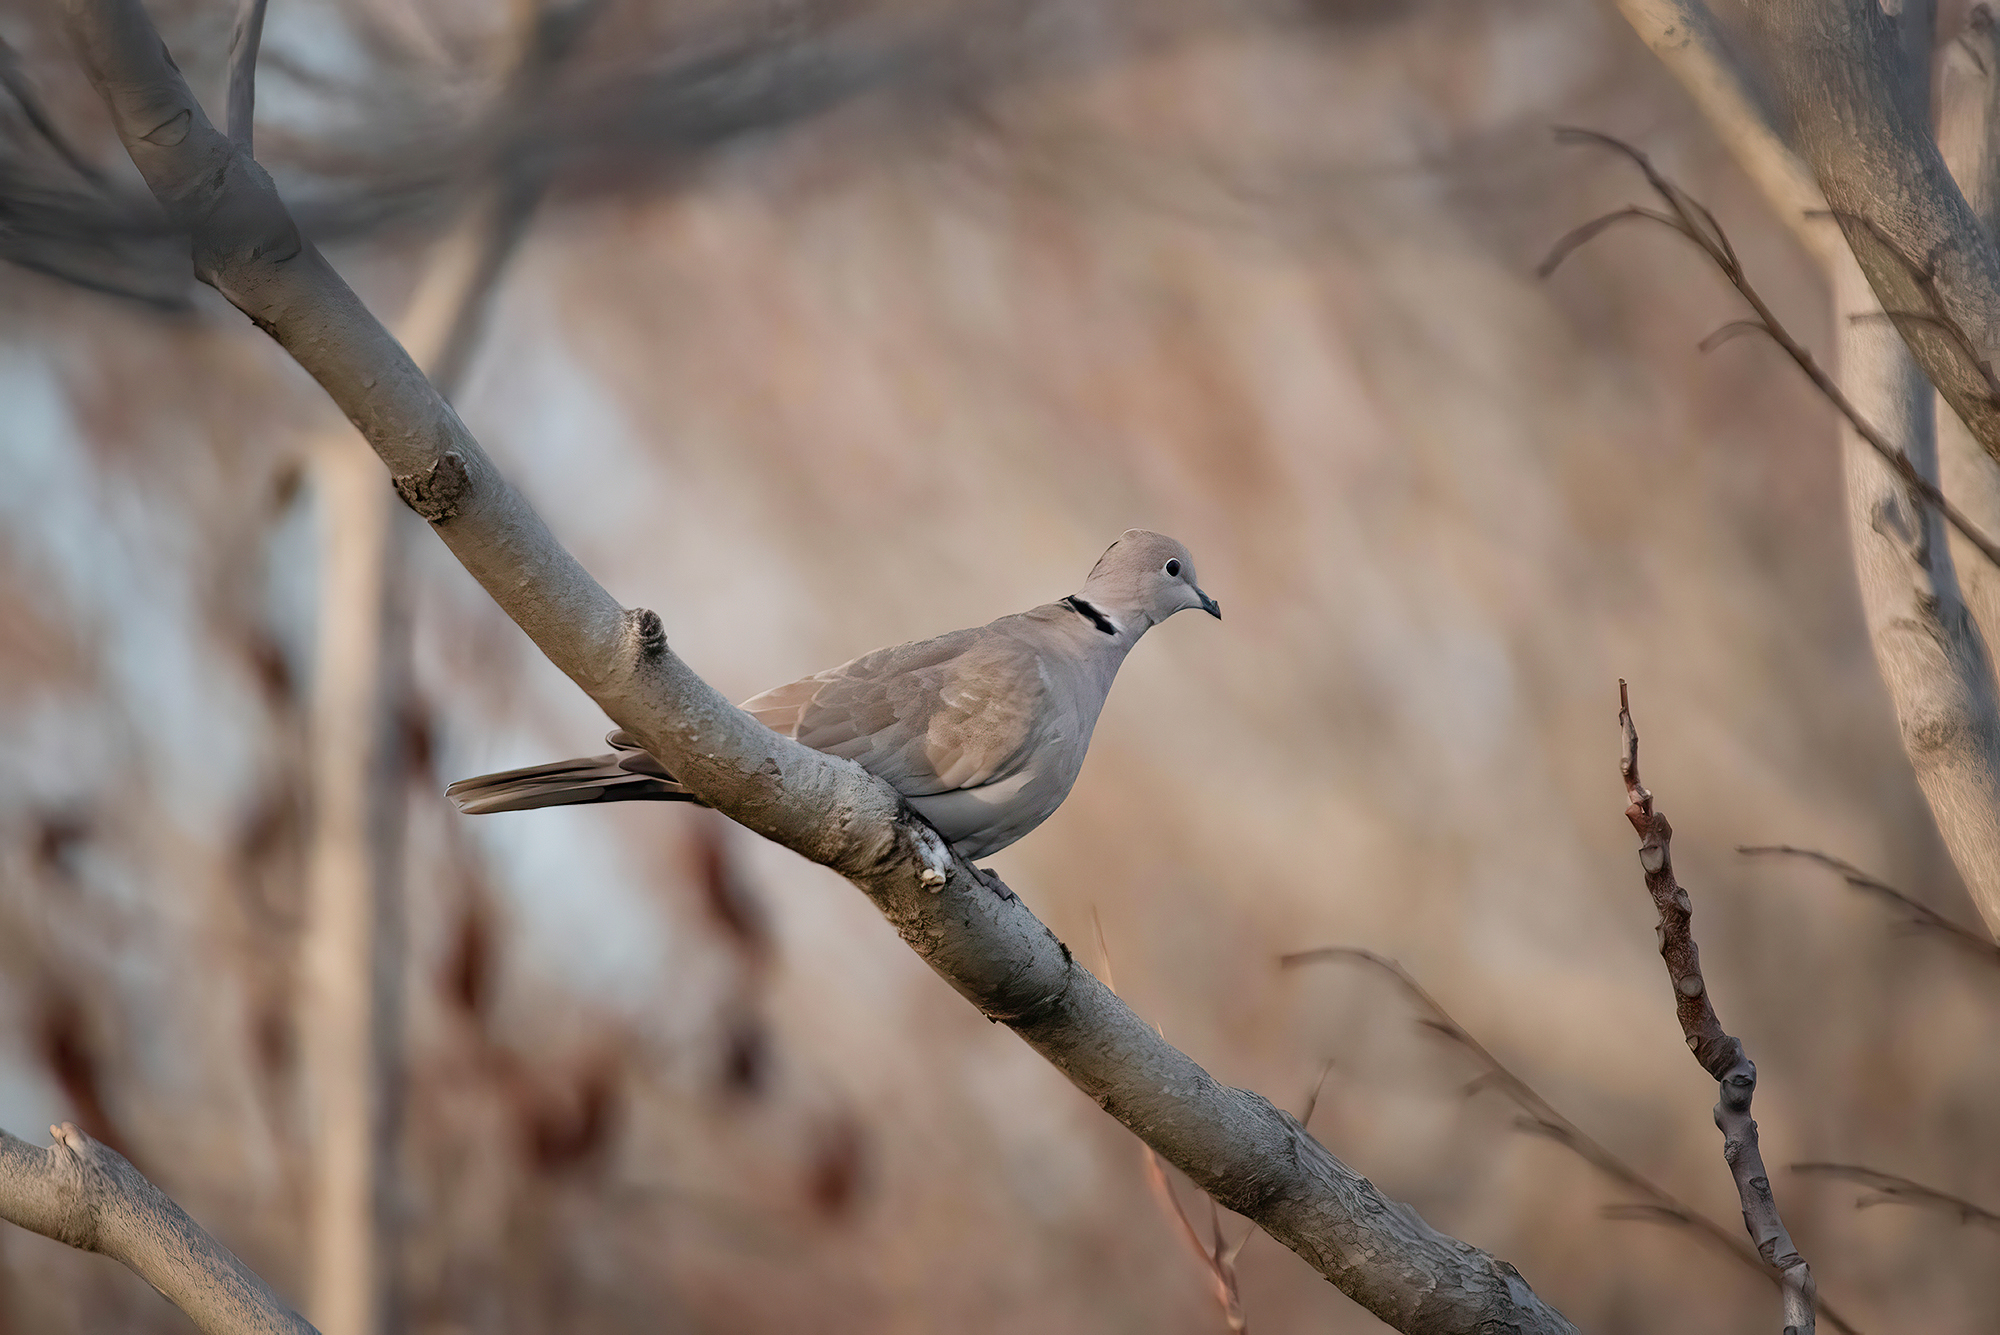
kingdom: Animalia
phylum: Chordata
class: Aves
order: Columbiformes
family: Columbidae
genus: Streptopelia
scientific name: Streptopelia decaocto
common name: Eurasian collared dove
